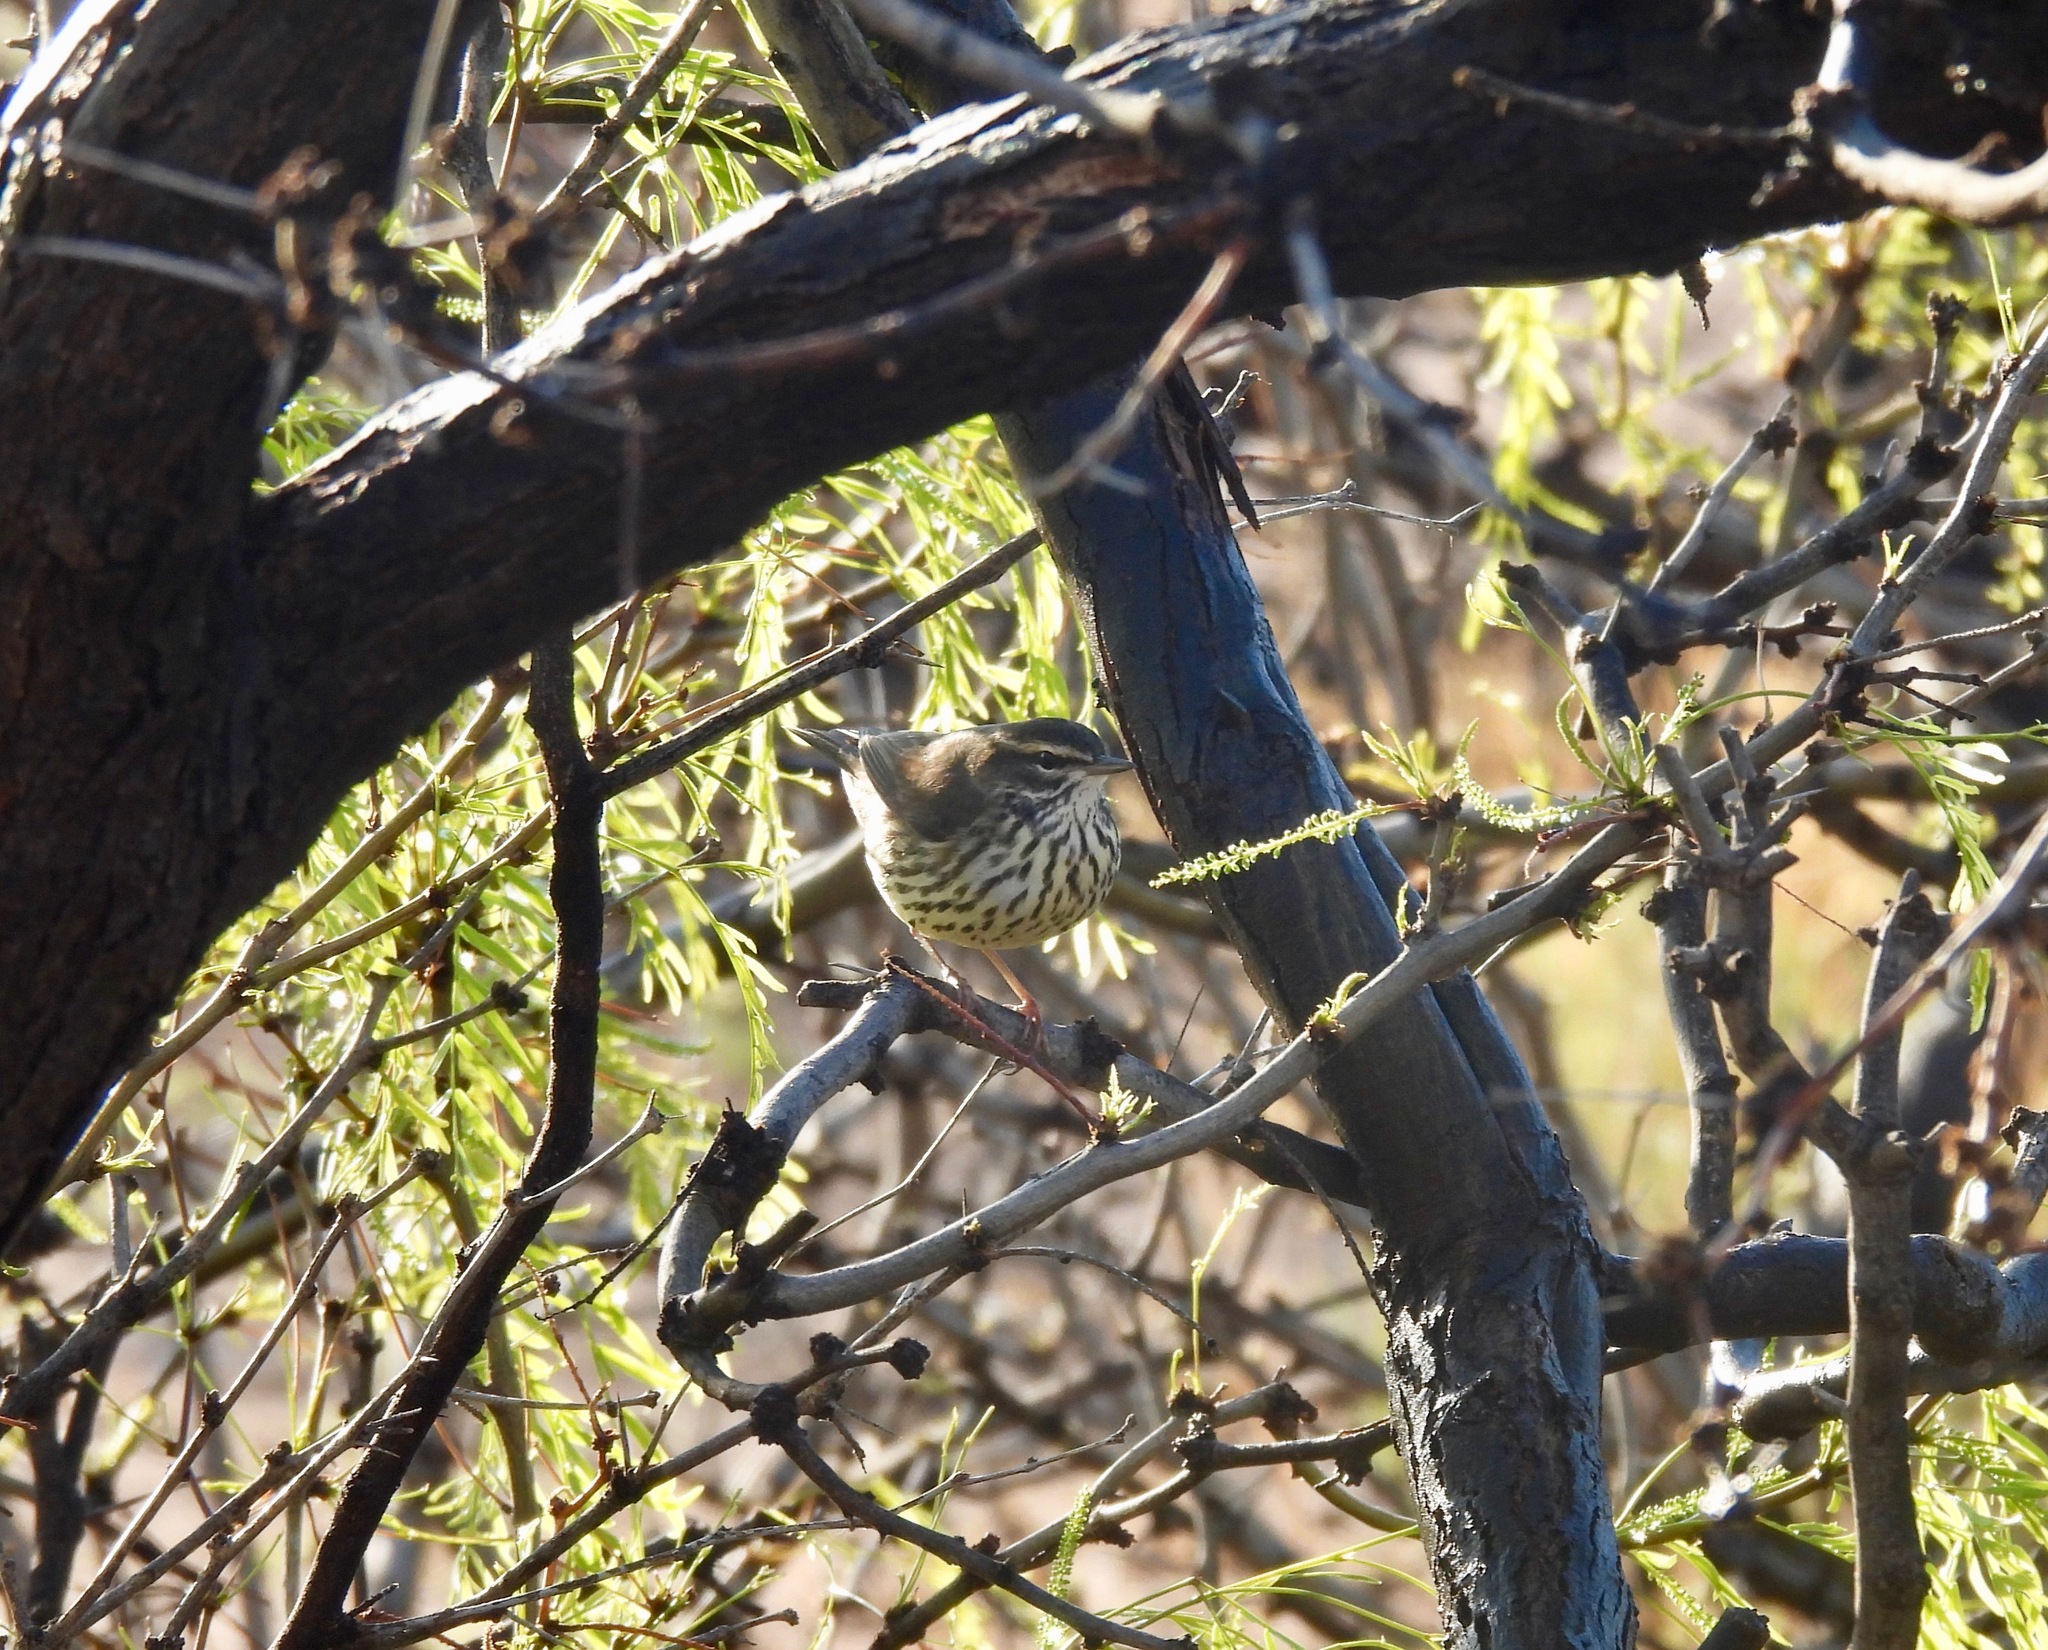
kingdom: Animalia
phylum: Chordata
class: Aves
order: Passeriformes
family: Parulidae
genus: Parkesia
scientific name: Parkesia noveboracensis
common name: Northern waterthrush
